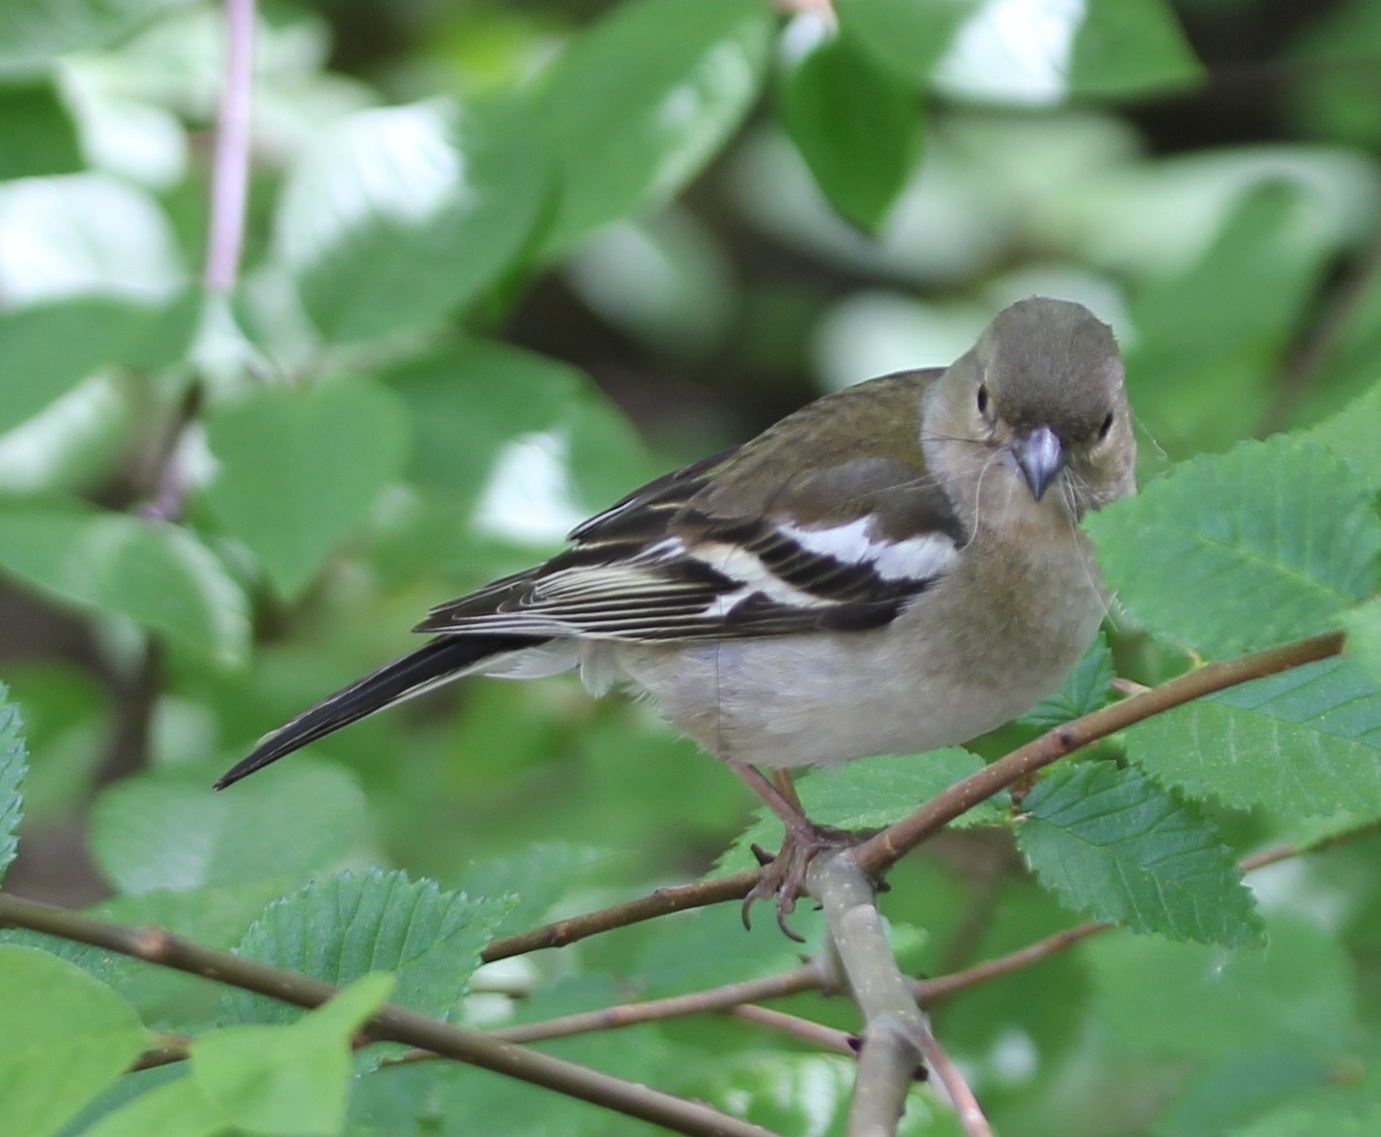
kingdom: Animalia
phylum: Chordata
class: Aves
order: Passeriformes
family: Fringillidae
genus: Fringilla
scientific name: Fringilla coelebs
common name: Common chaffinch
